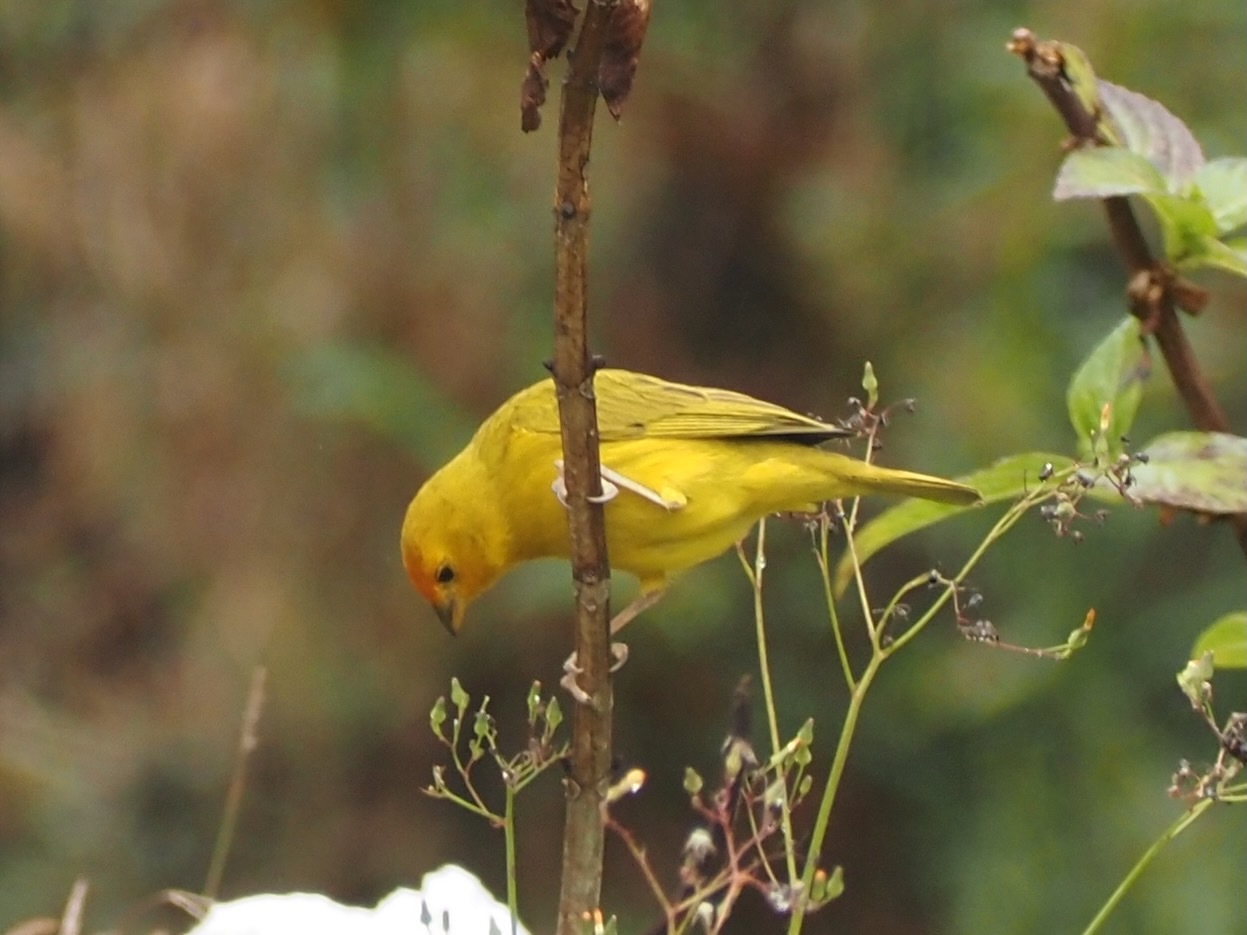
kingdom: Animalia
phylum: Chordata
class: Aves
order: Passeriformes
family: Thraupidae
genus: Sicalis
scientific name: Sicalis flaveola
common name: Saffron finch
